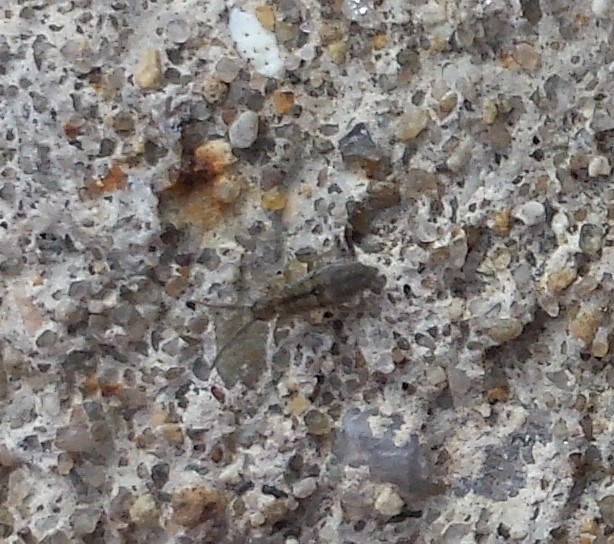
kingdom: Animalia
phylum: Arthropoda
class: Collembola
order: Entomobryomorpha
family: Entomobryidae
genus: Entomobrya
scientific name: Entomobrya unostrigata
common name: Springtail
